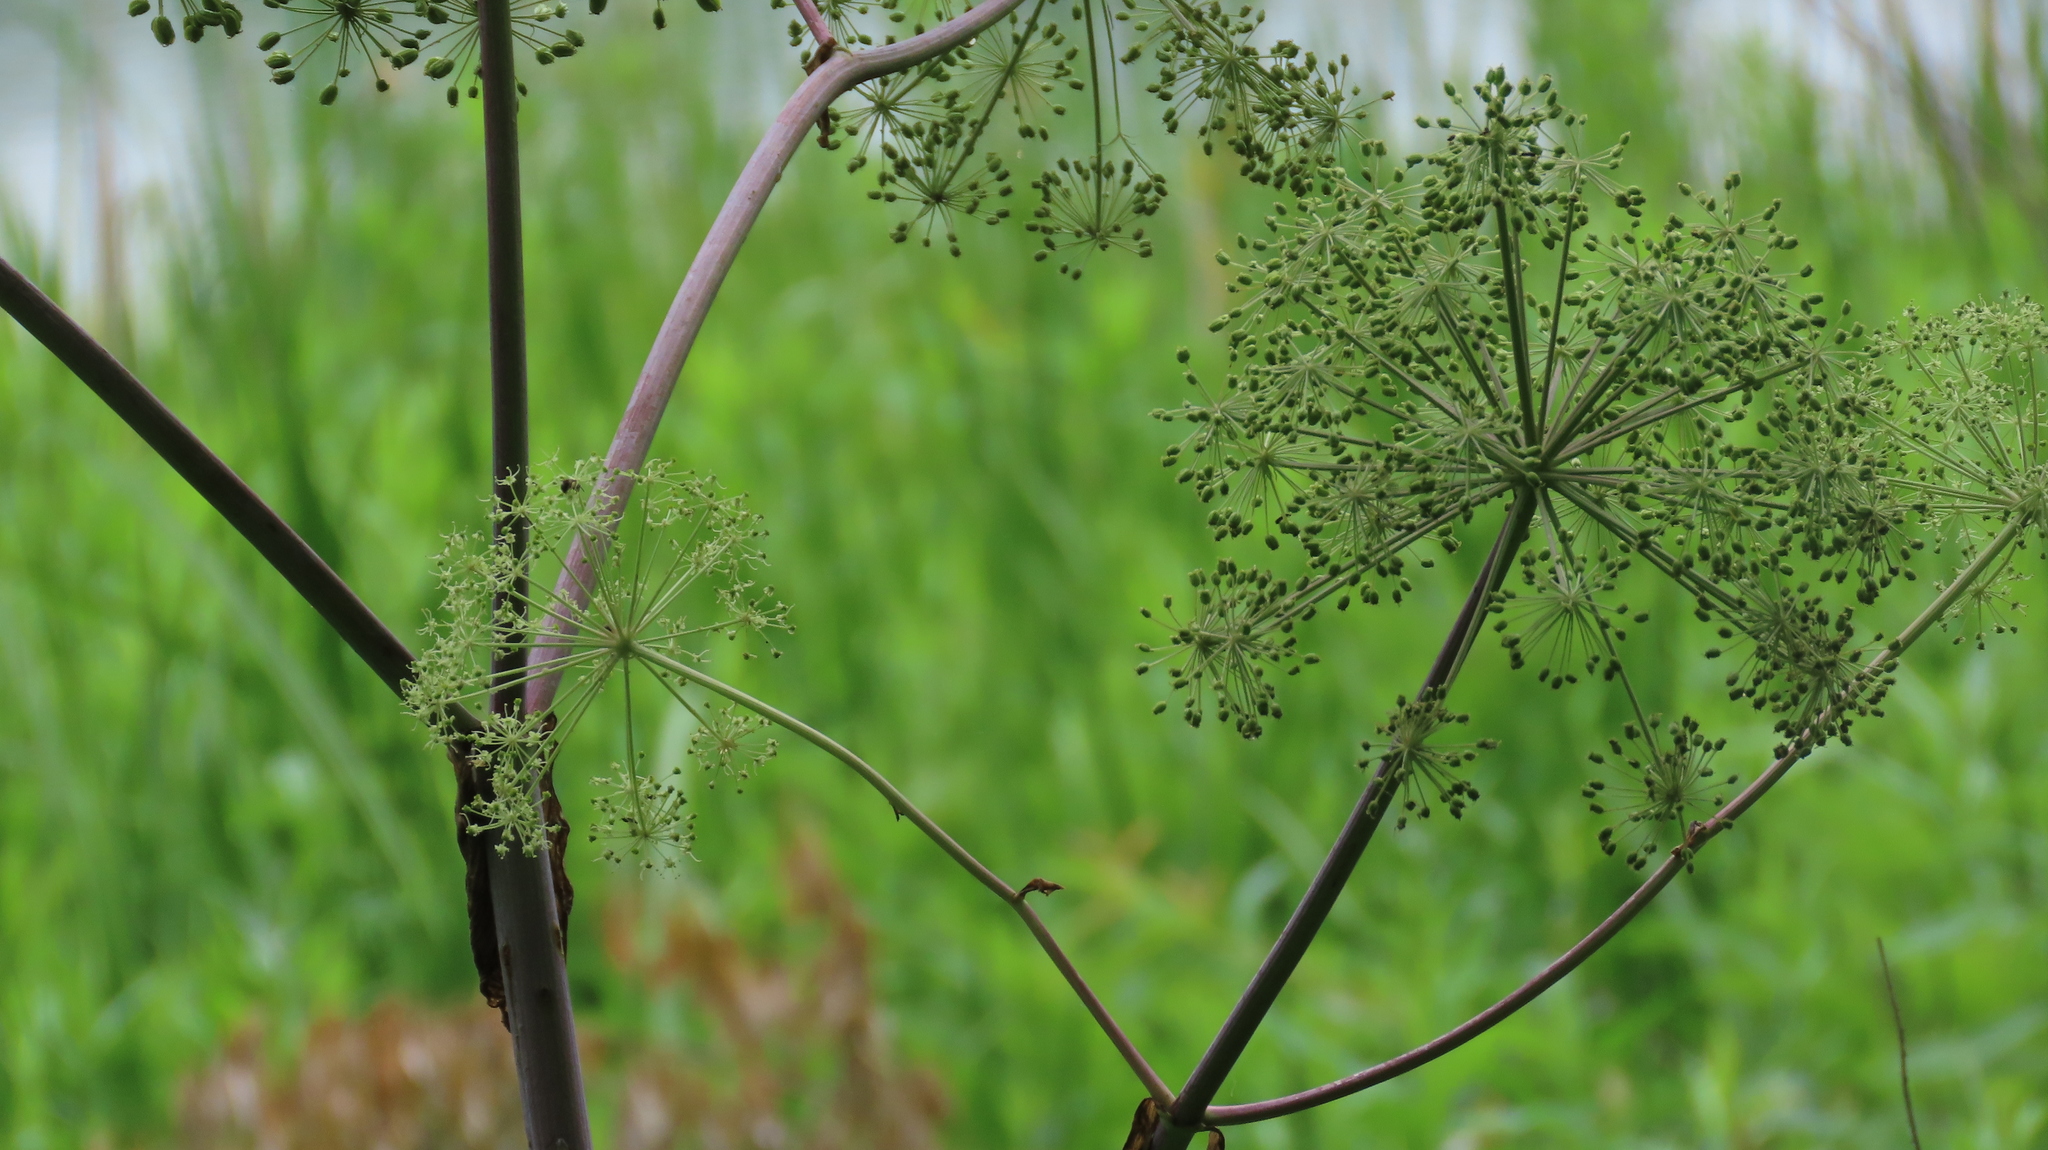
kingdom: Plantae
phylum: Tracheophyta
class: Magnoliopsida
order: Apiales
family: Apiaceae
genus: Angelica
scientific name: Angelica atropurpurea
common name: Great angelica
